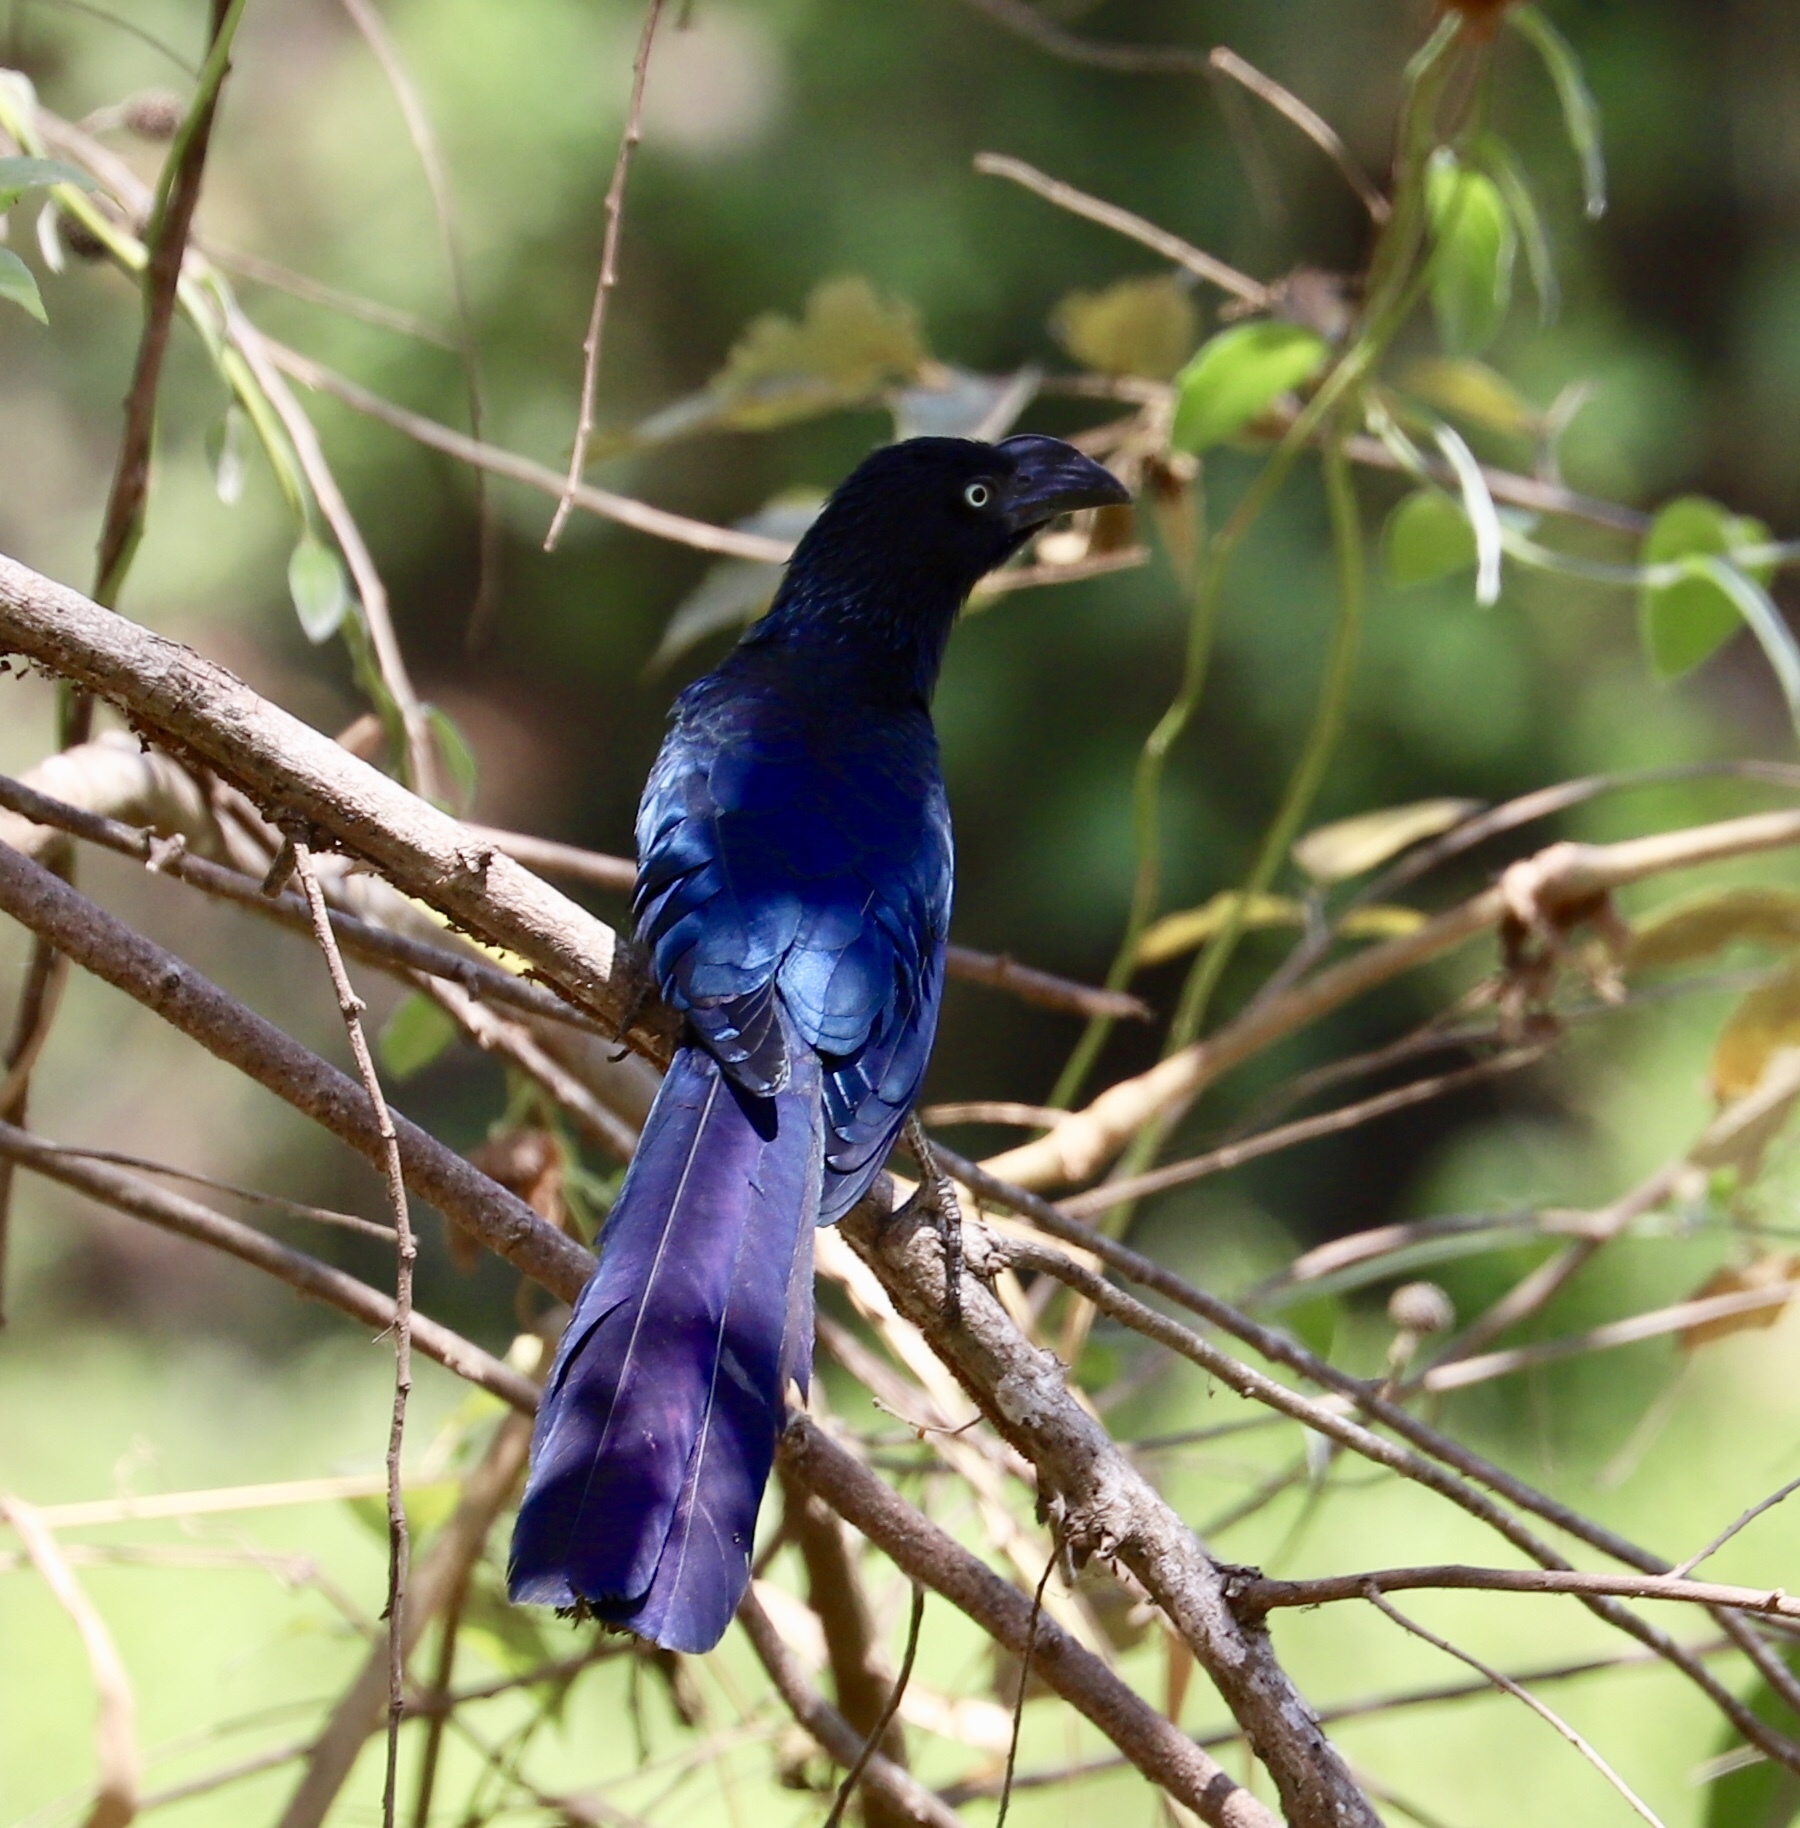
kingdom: Animalia
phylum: Chordata
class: Aves
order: Cuculiformes
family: Cuculidae
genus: Crotophaga
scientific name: Crotophaga major
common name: Greater ani
